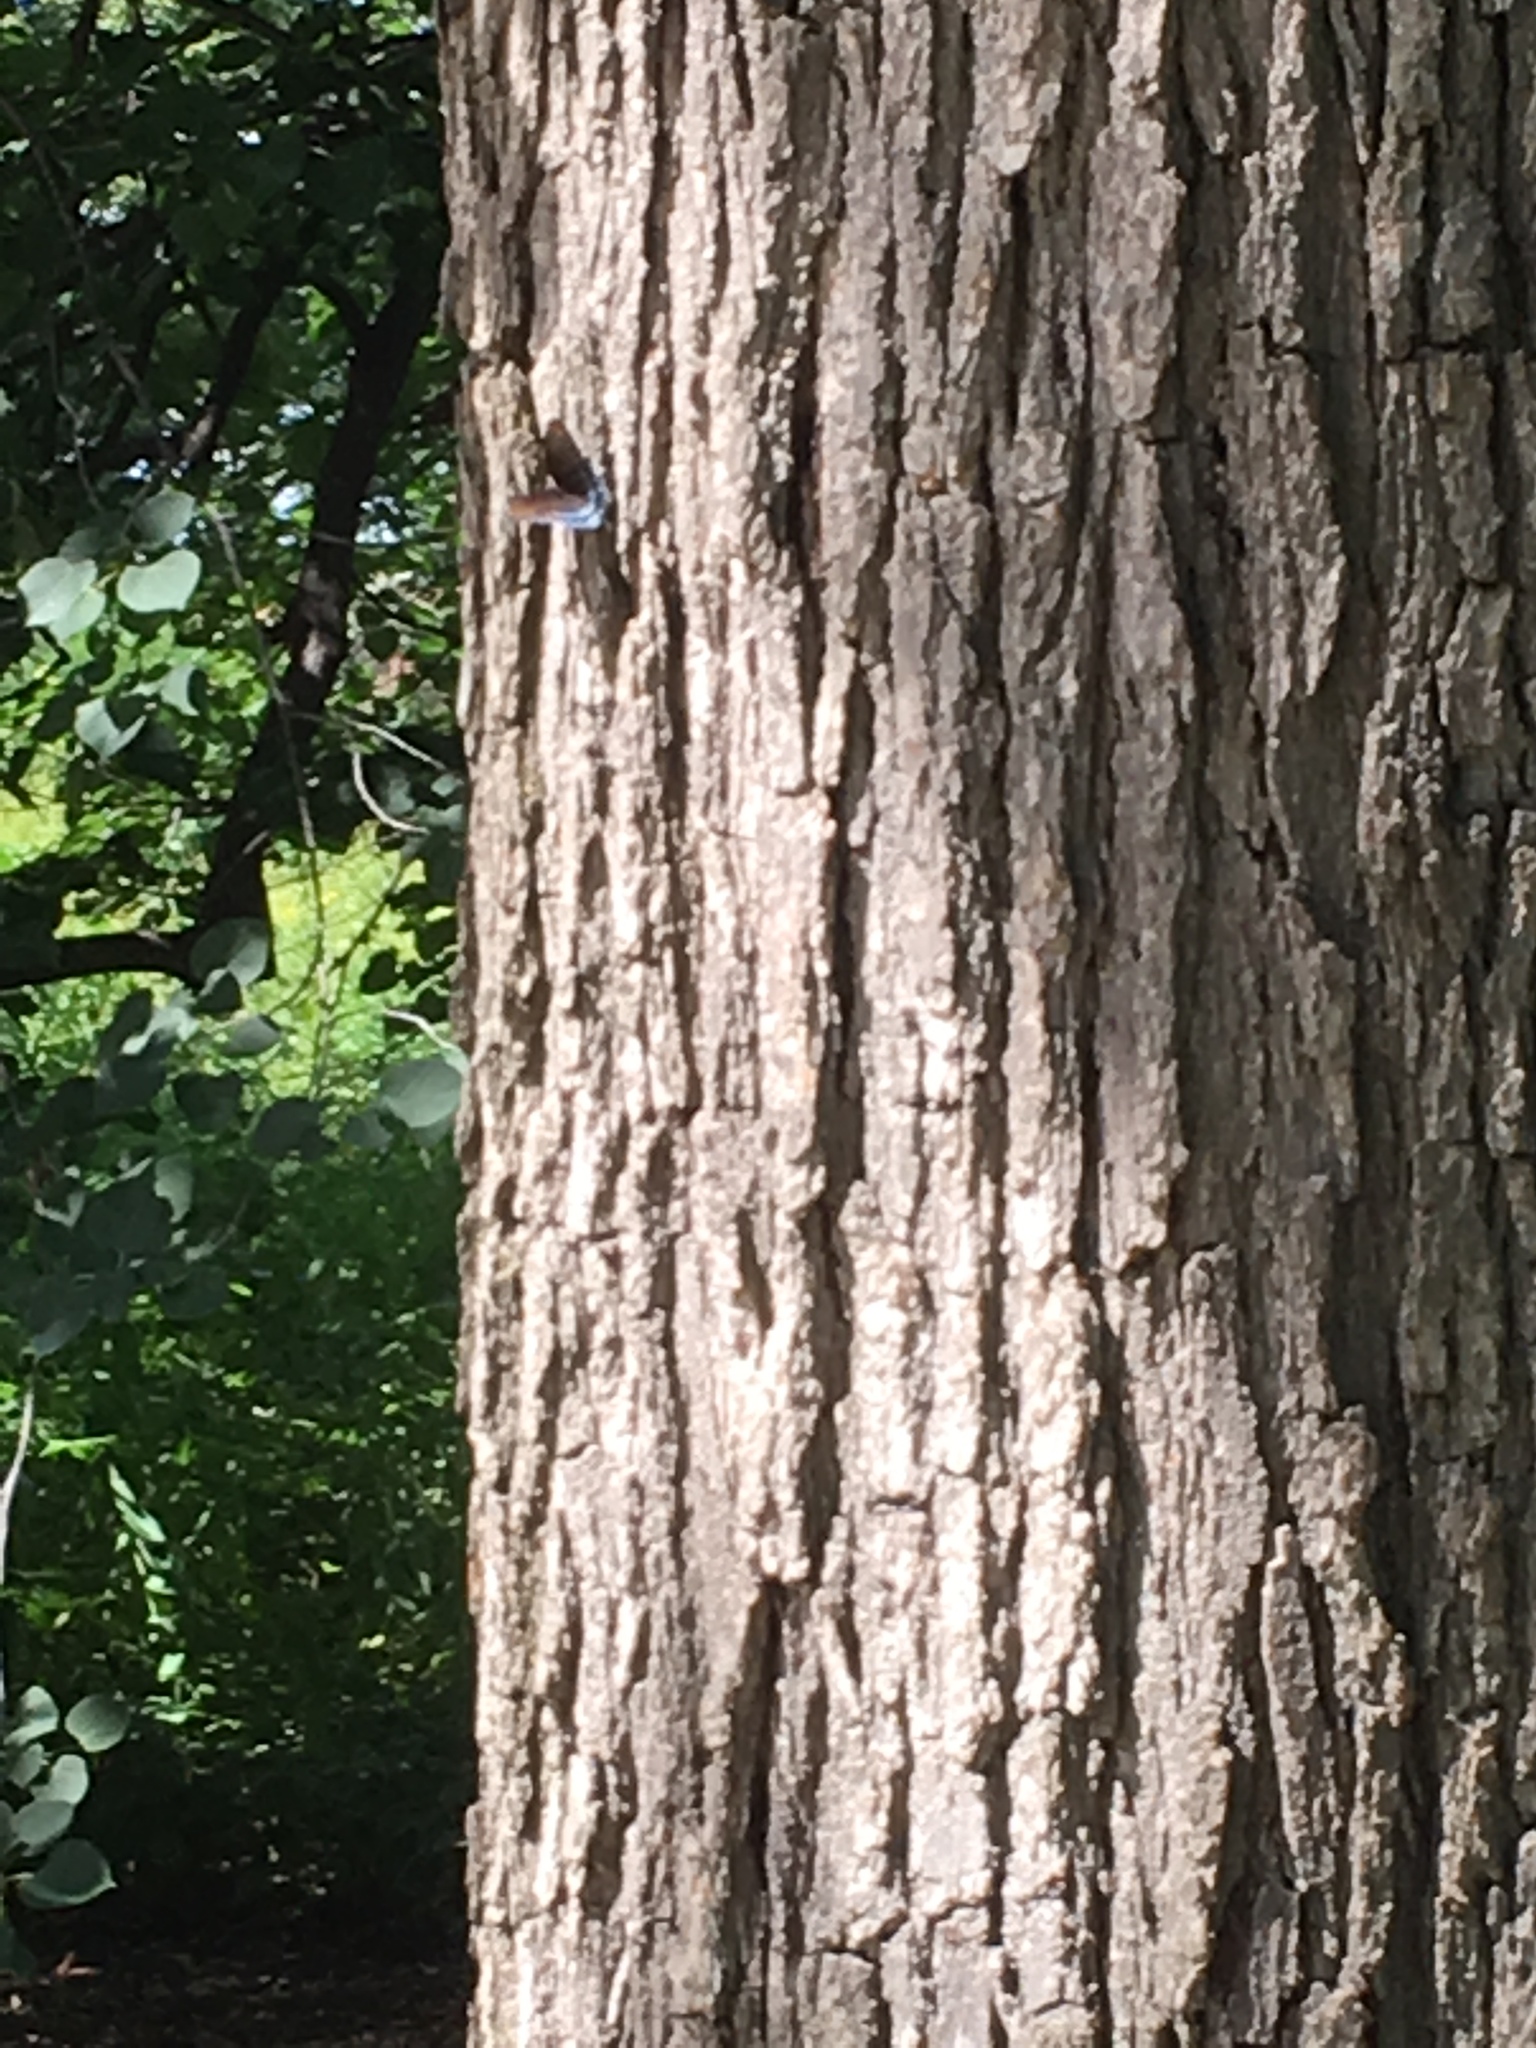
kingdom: Animalia
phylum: Arthropoda
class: Insecta
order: Lepidoptera
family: Nymphalidae
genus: Limenitis
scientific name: Limenitis arthemis
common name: Red-spotted admiral
